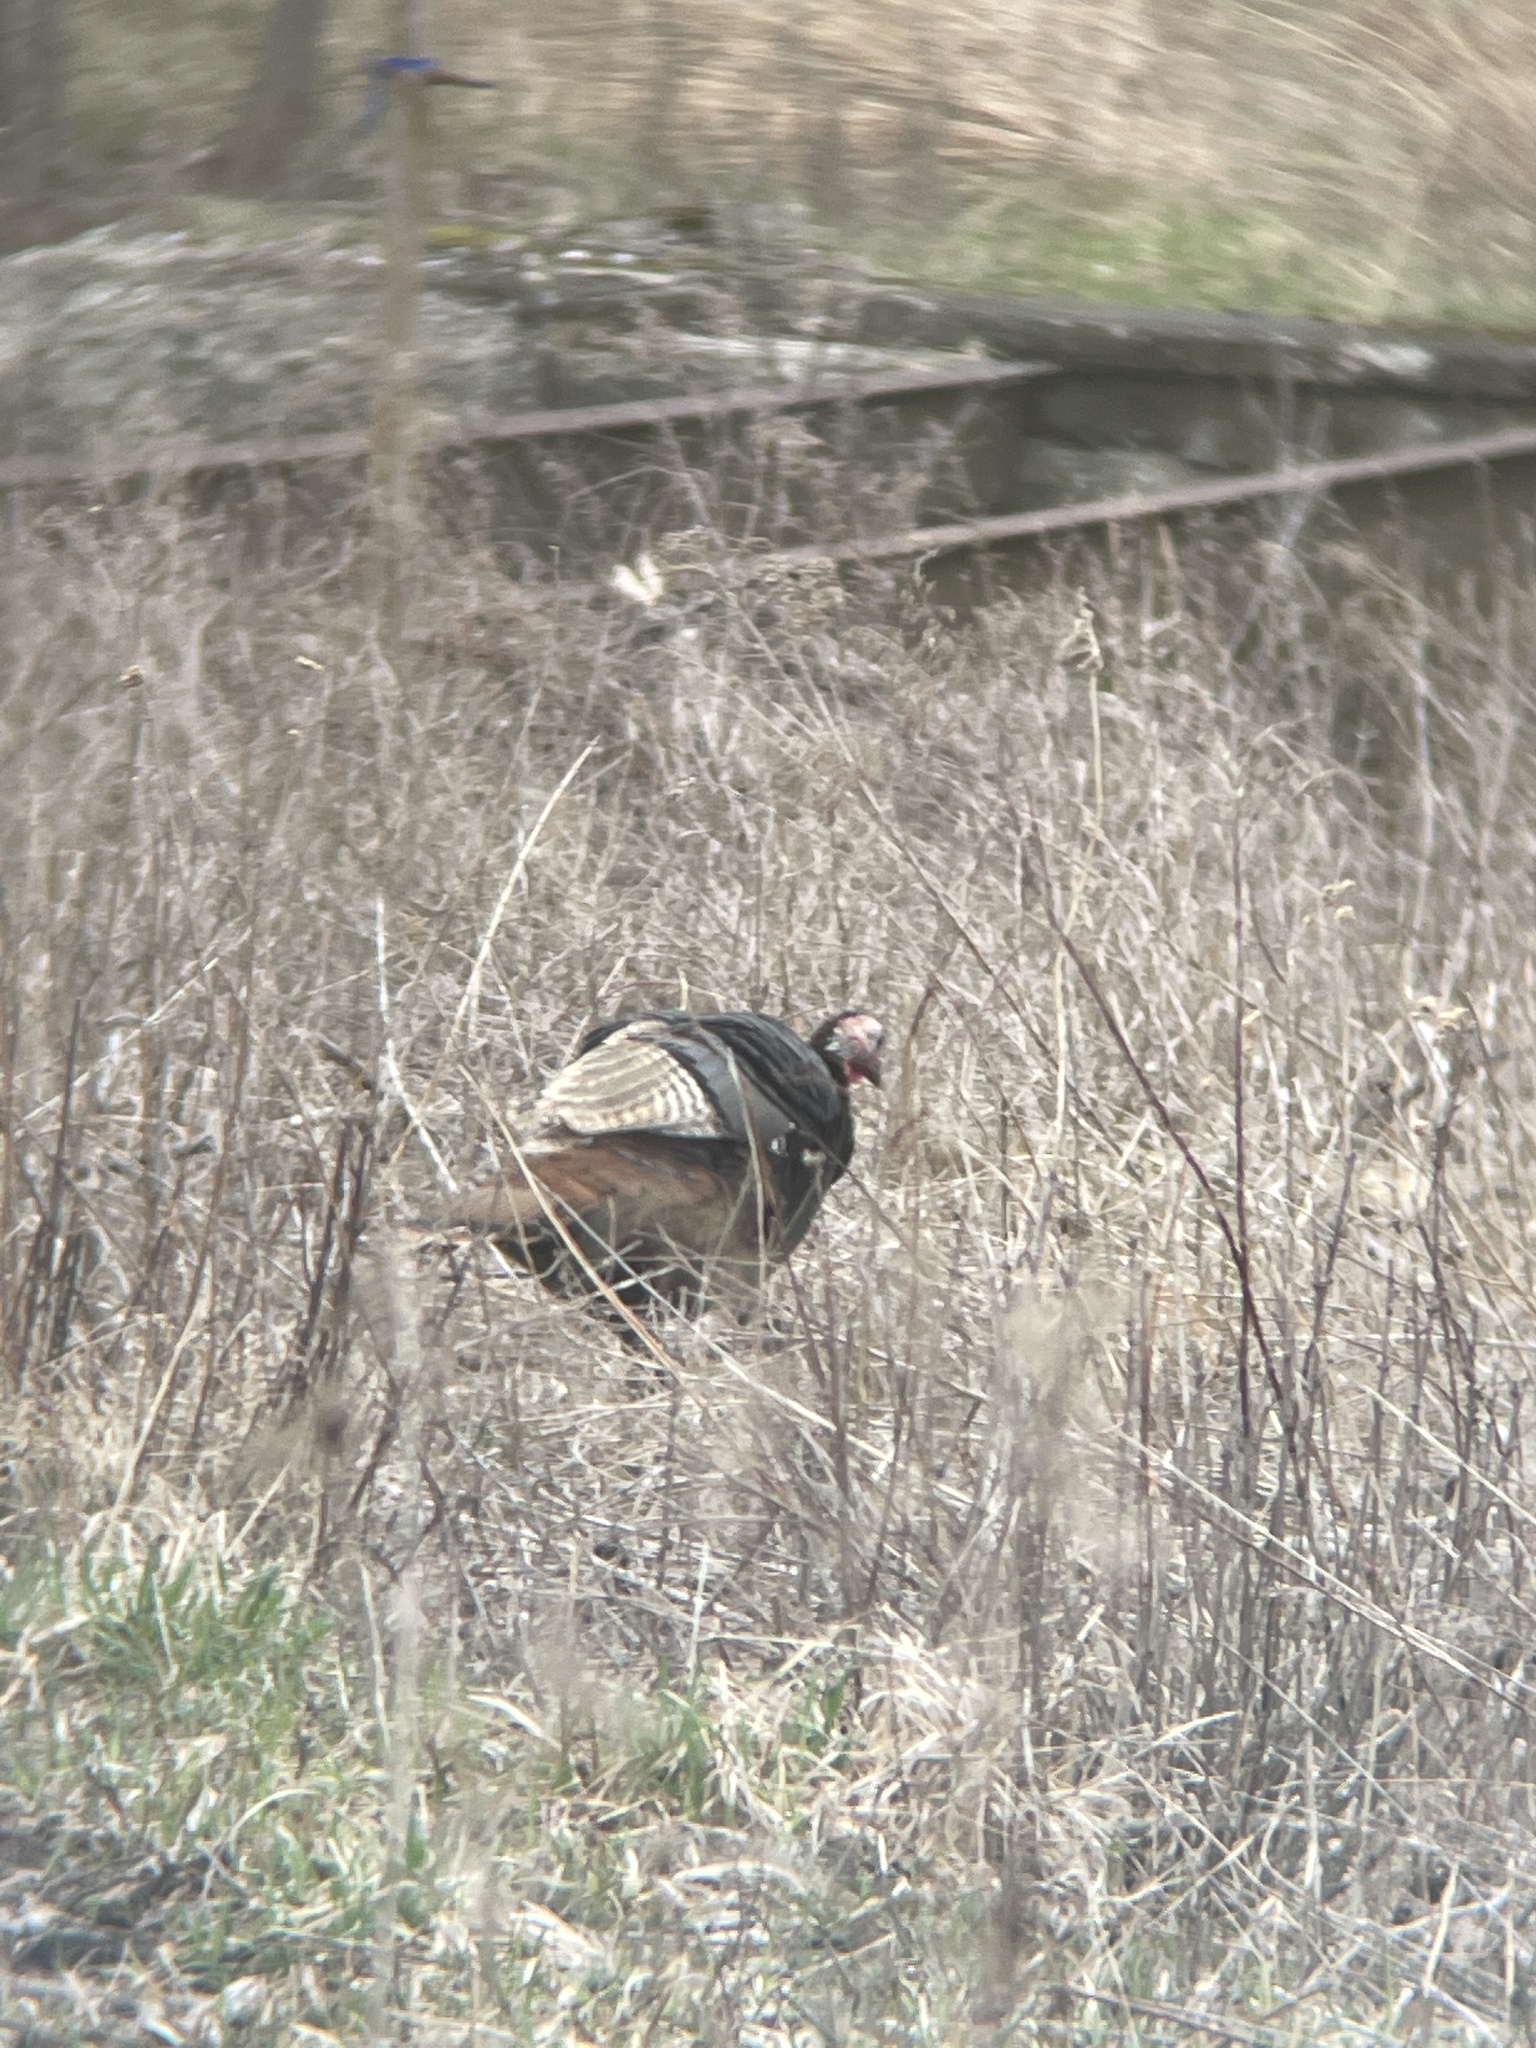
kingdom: Animalia
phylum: Chordata
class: Aves
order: Galliformes
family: Phasianidae
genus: Meleagris
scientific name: Meleagris gallopavo
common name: Wild turkey
